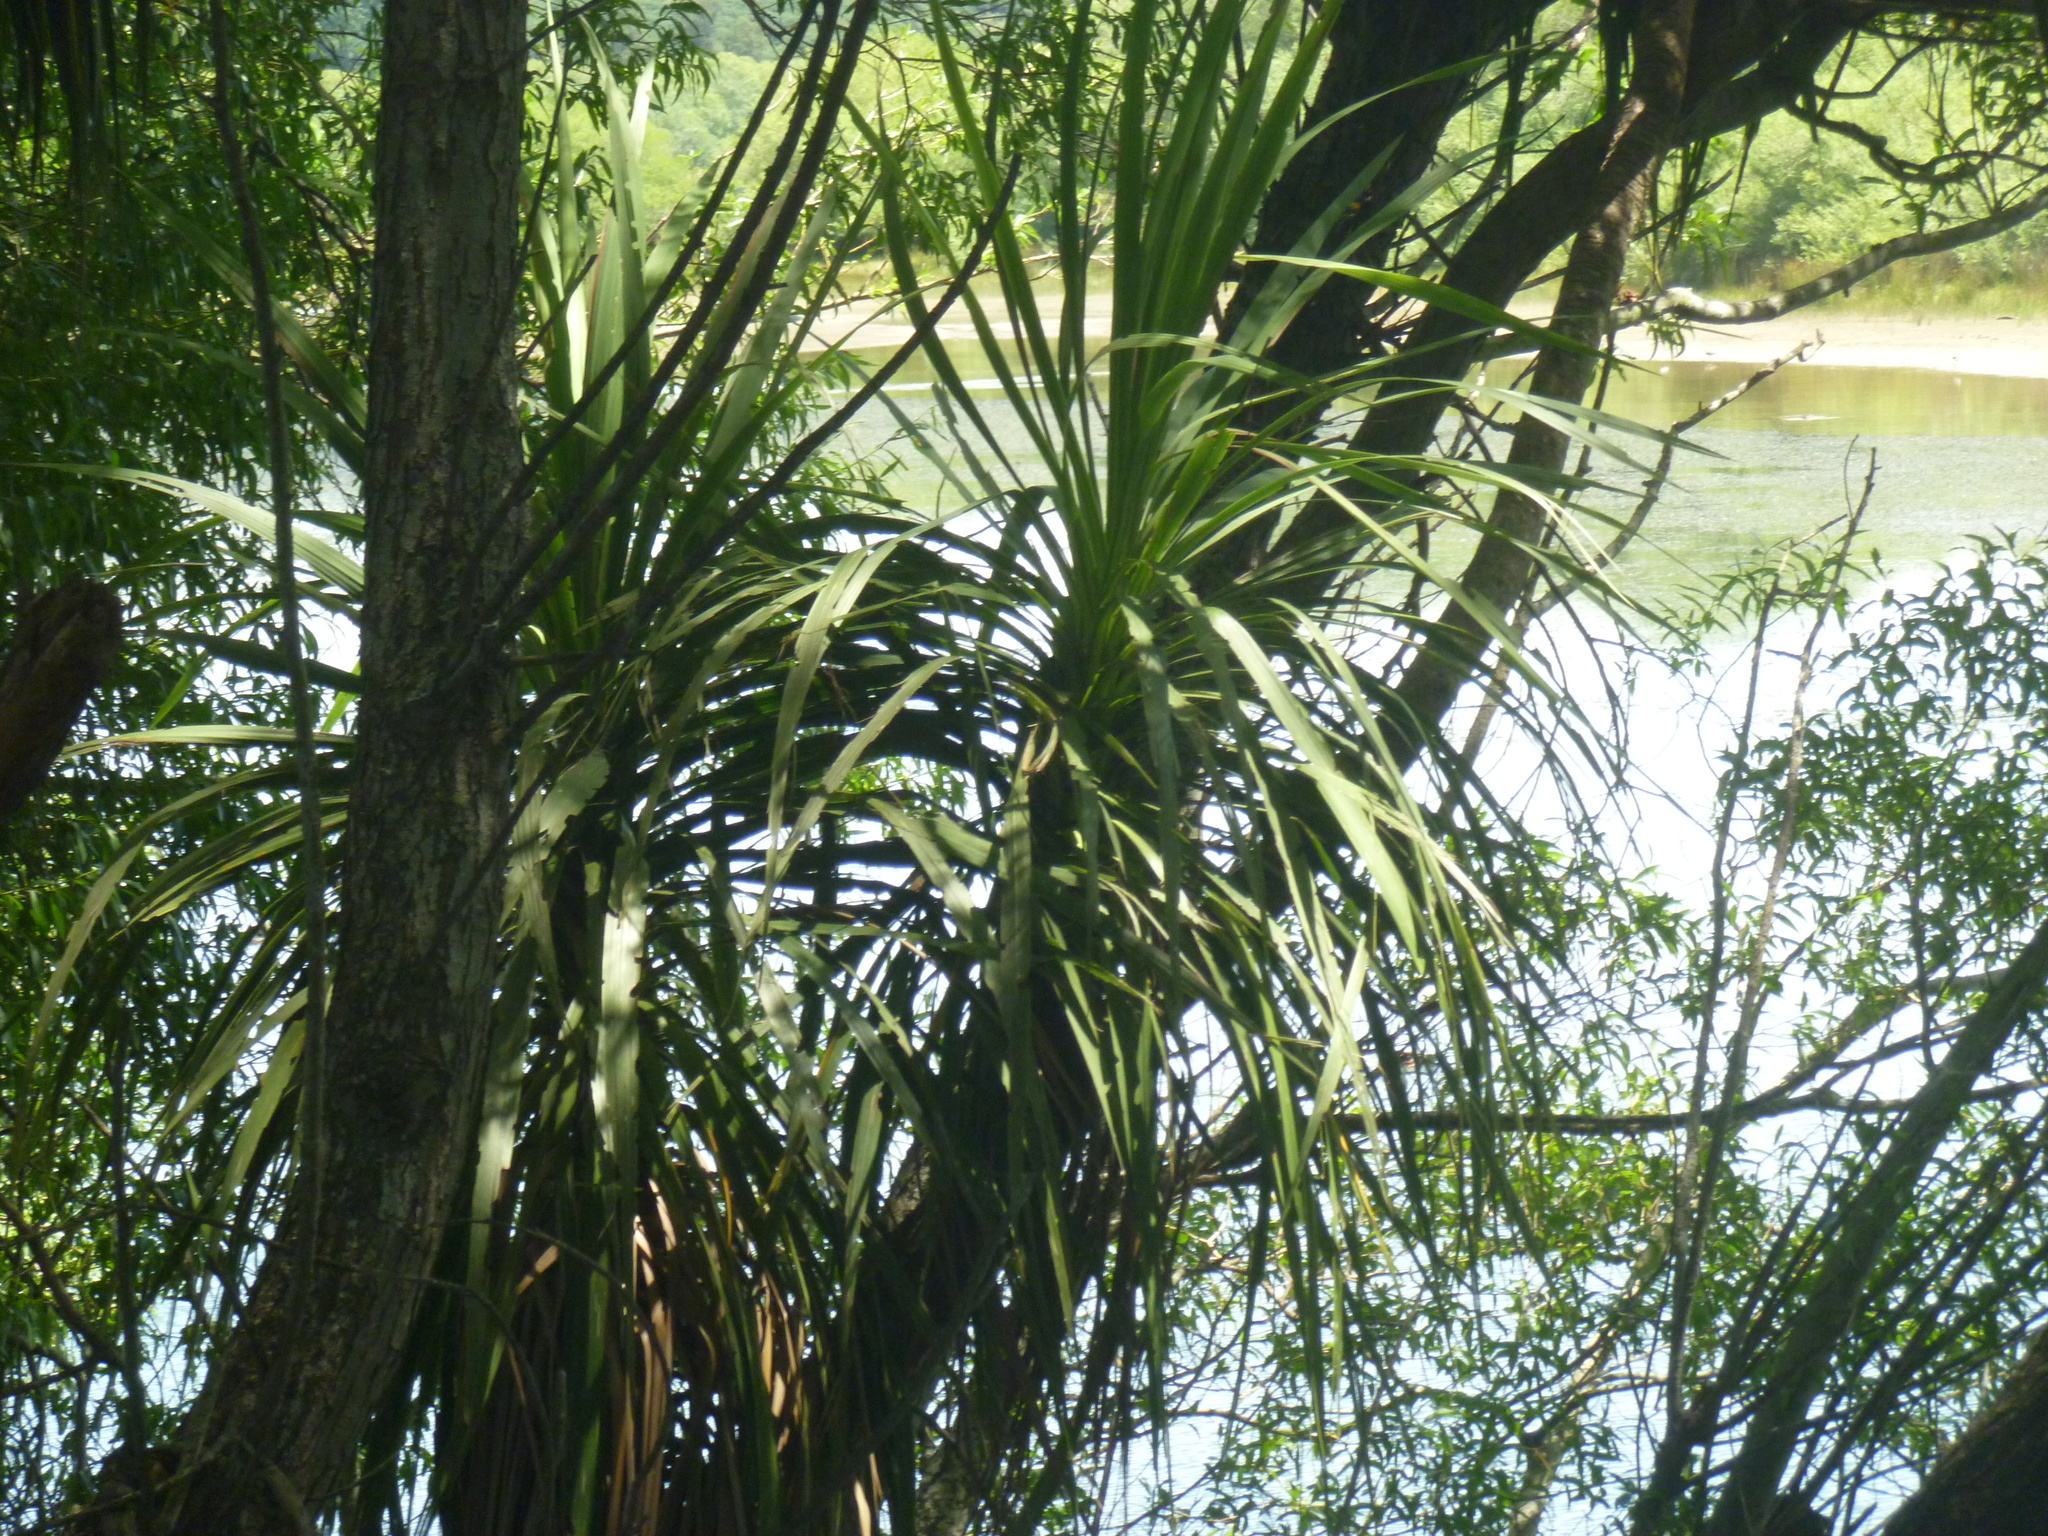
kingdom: Plantae
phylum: Tracheophyta
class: Liliopsida
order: Asparagales
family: Asparagaceae
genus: Cordyline
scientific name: Cordyline australis
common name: Cabbage-palm
